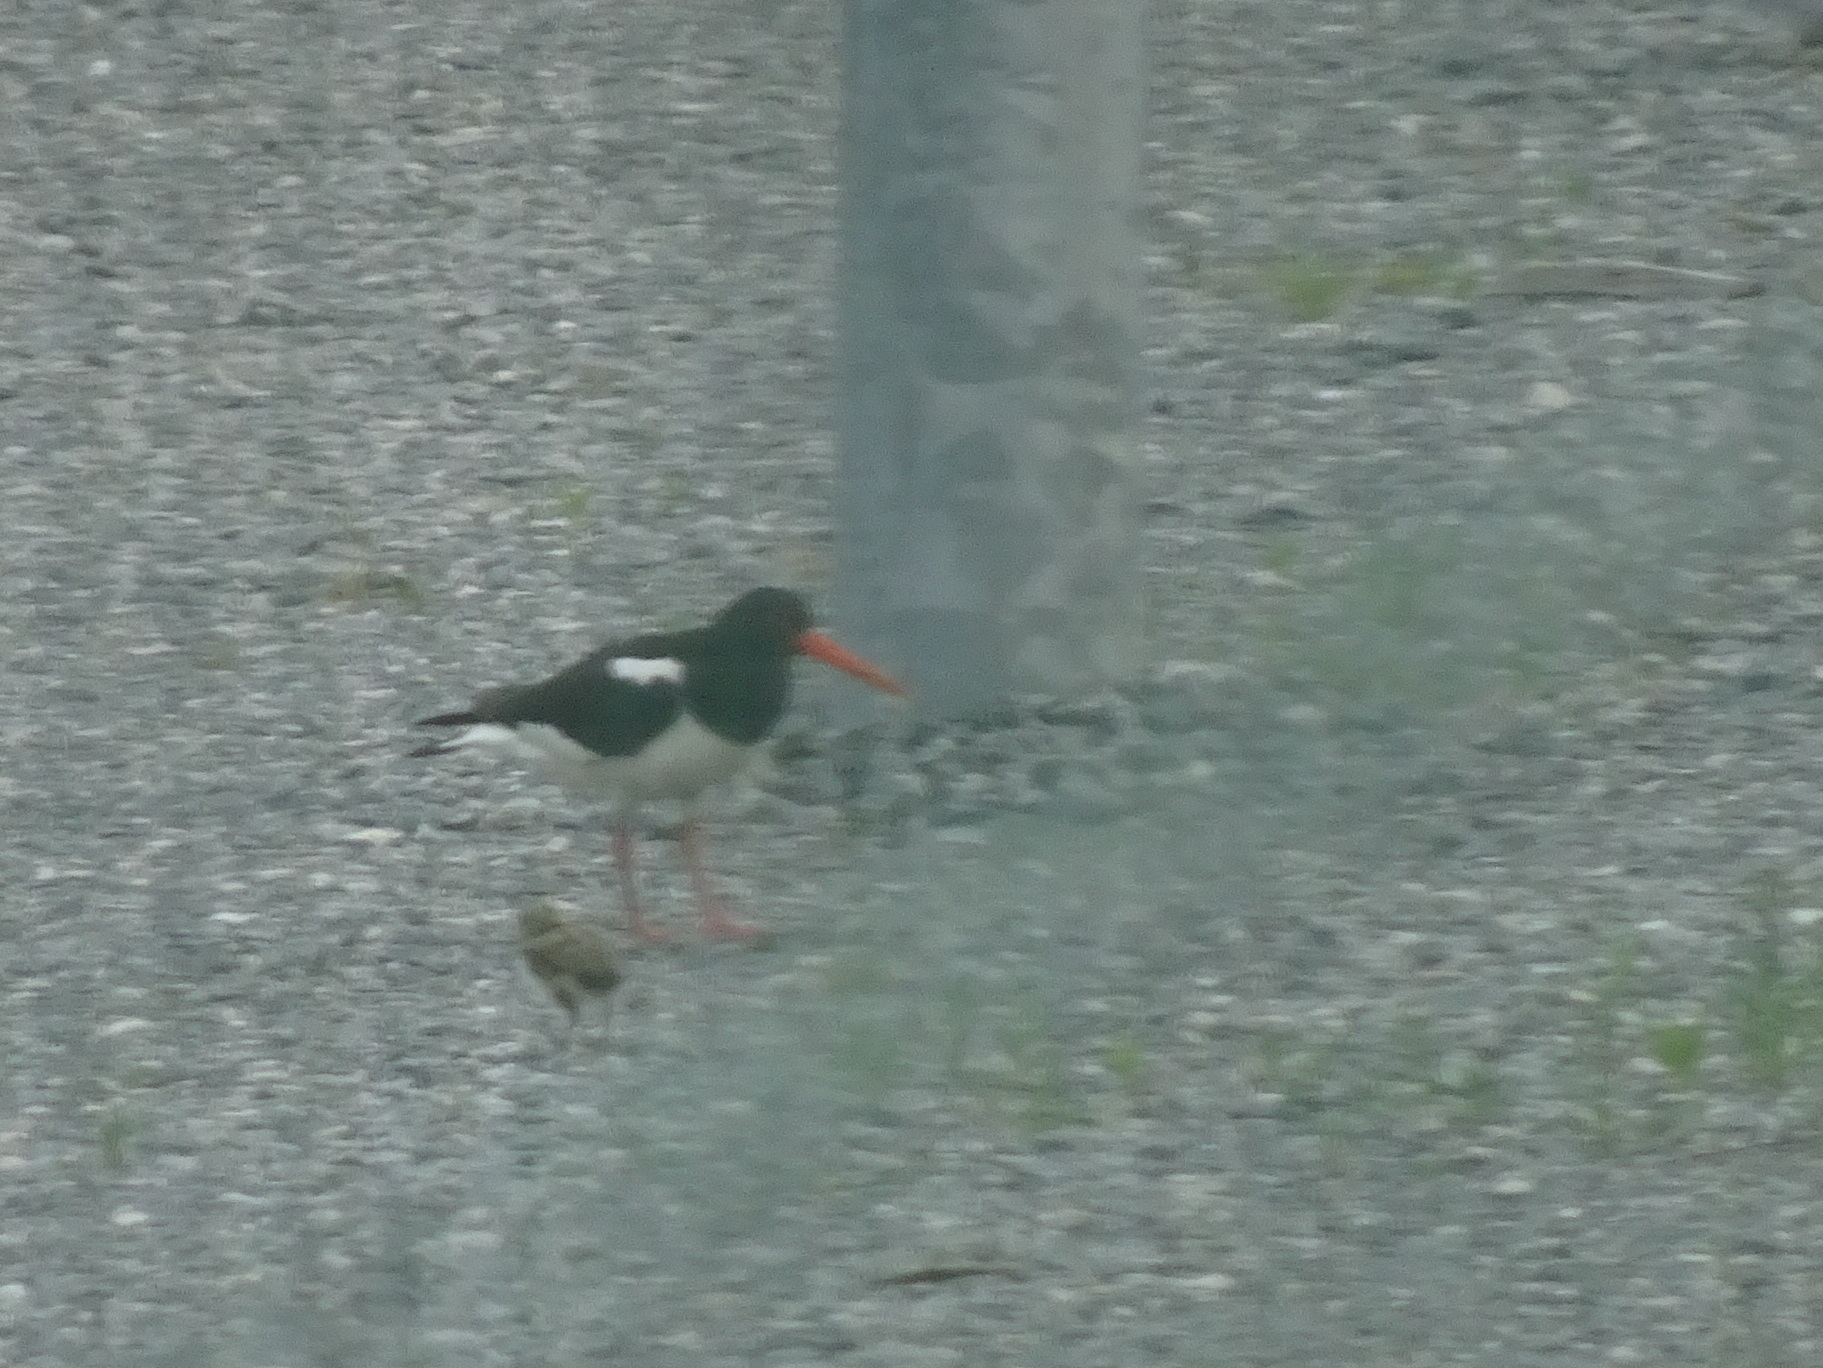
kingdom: Animalia
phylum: Chordata
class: Aves
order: Charadriiformes
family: Haematopodidae
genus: Haematopus
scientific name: Haematopus ostralegus
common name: Eurasian oystercatcher
